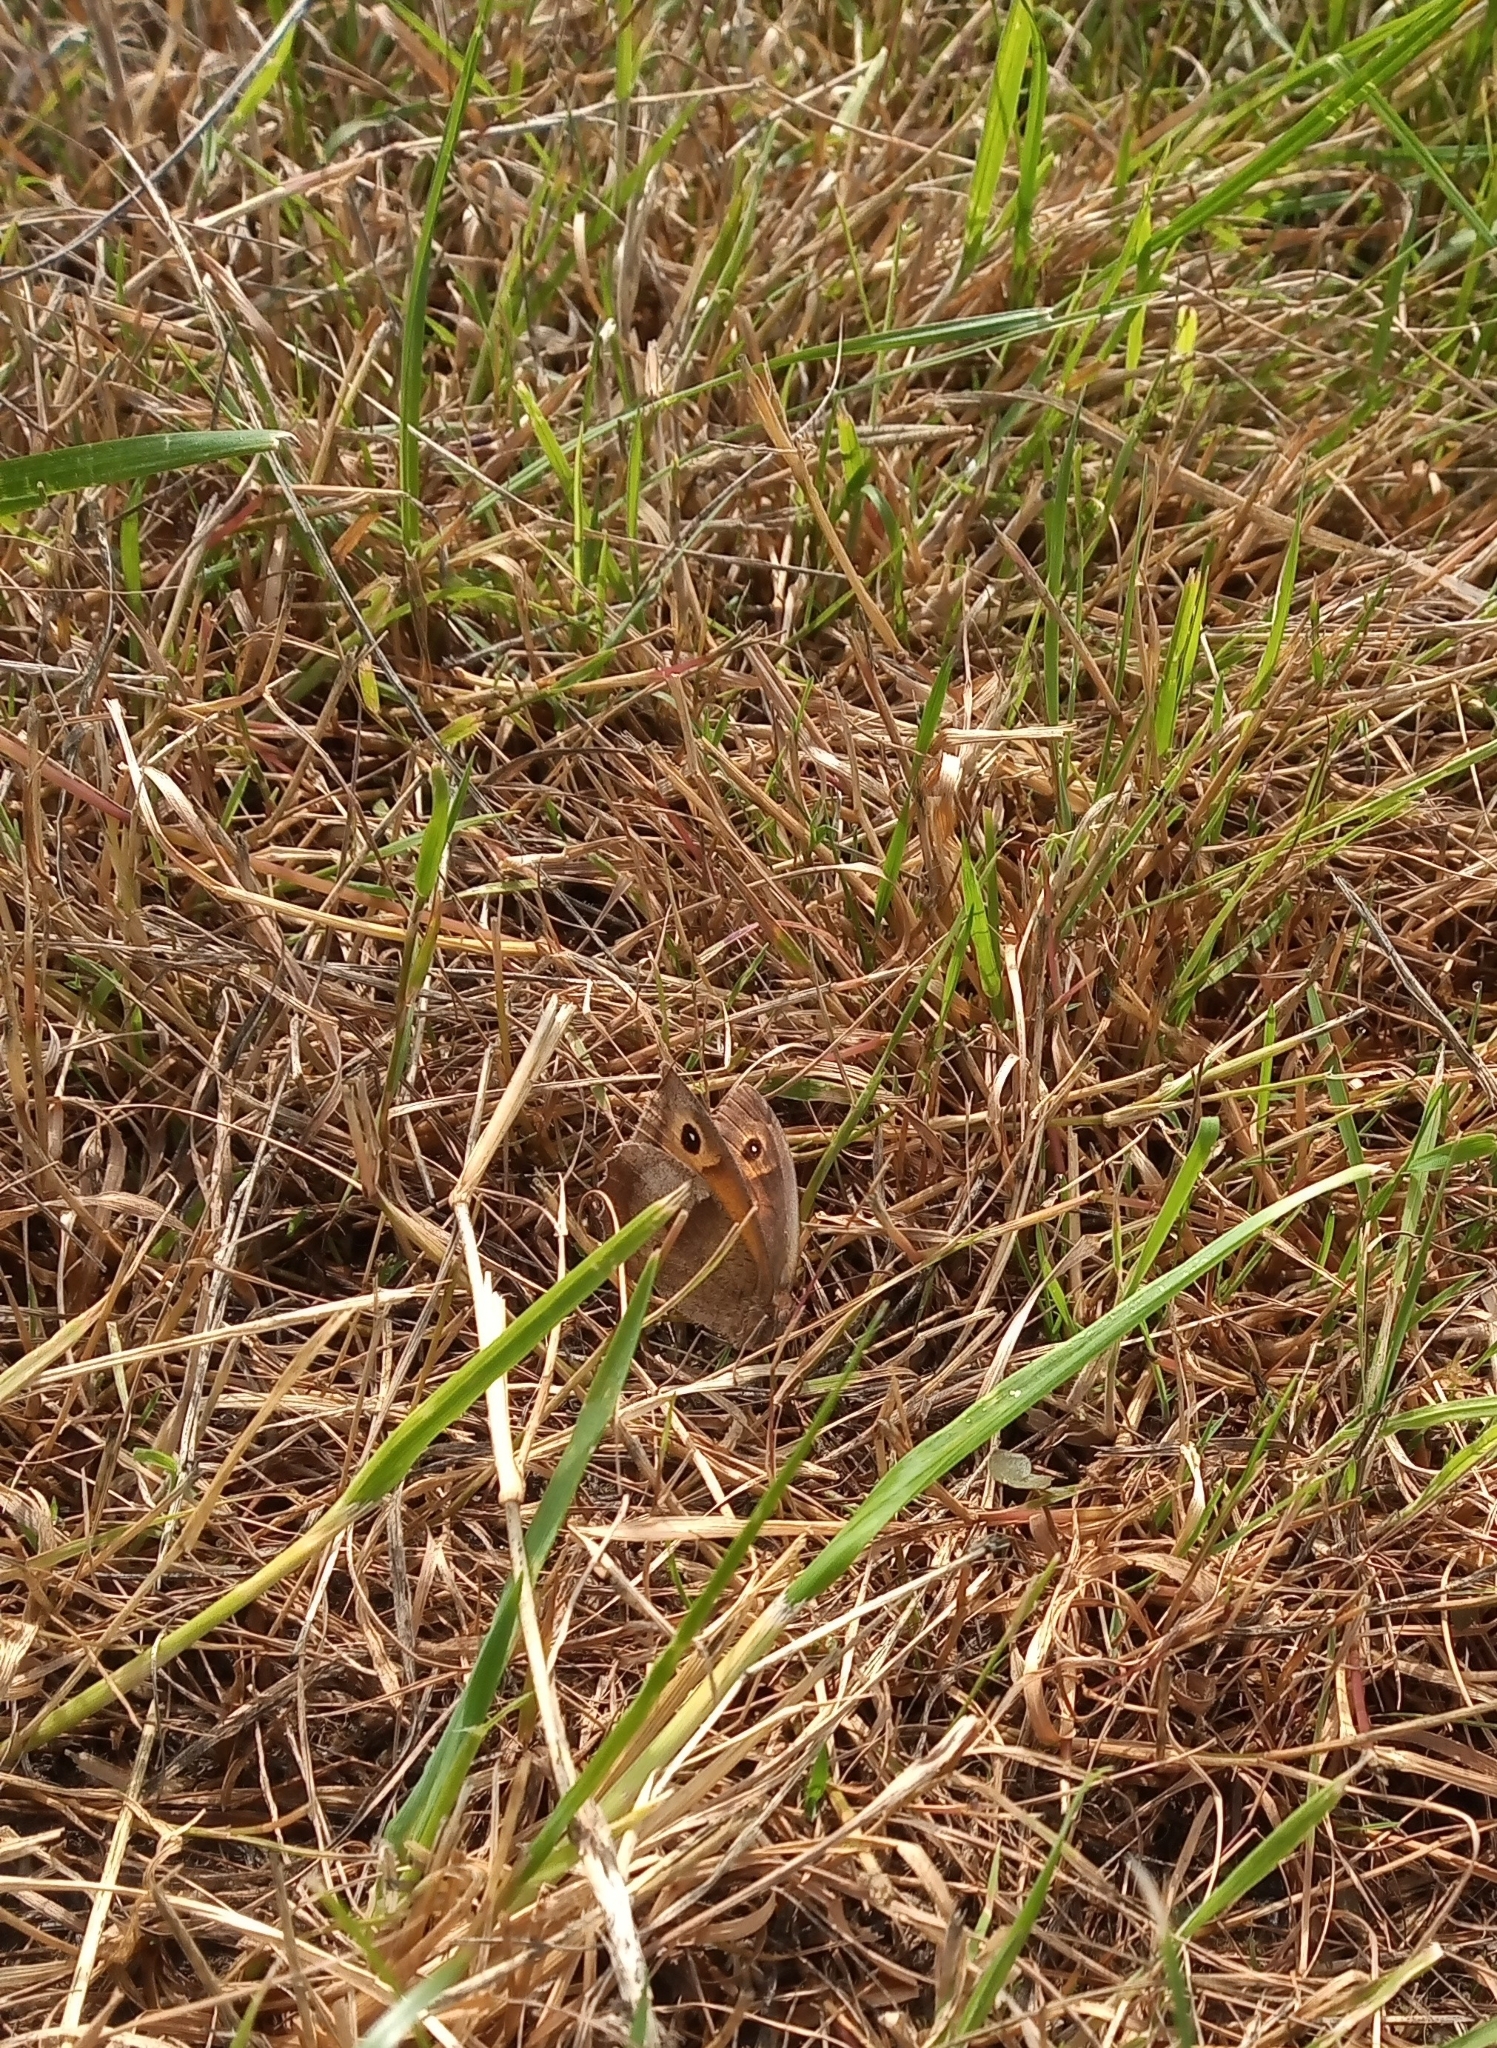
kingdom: Animalia
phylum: Arthropoda
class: Insecta
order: Lepidoptera
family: Nymphalidae
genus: Maniola
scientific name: Maniola jurtina
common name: Meadow brown
